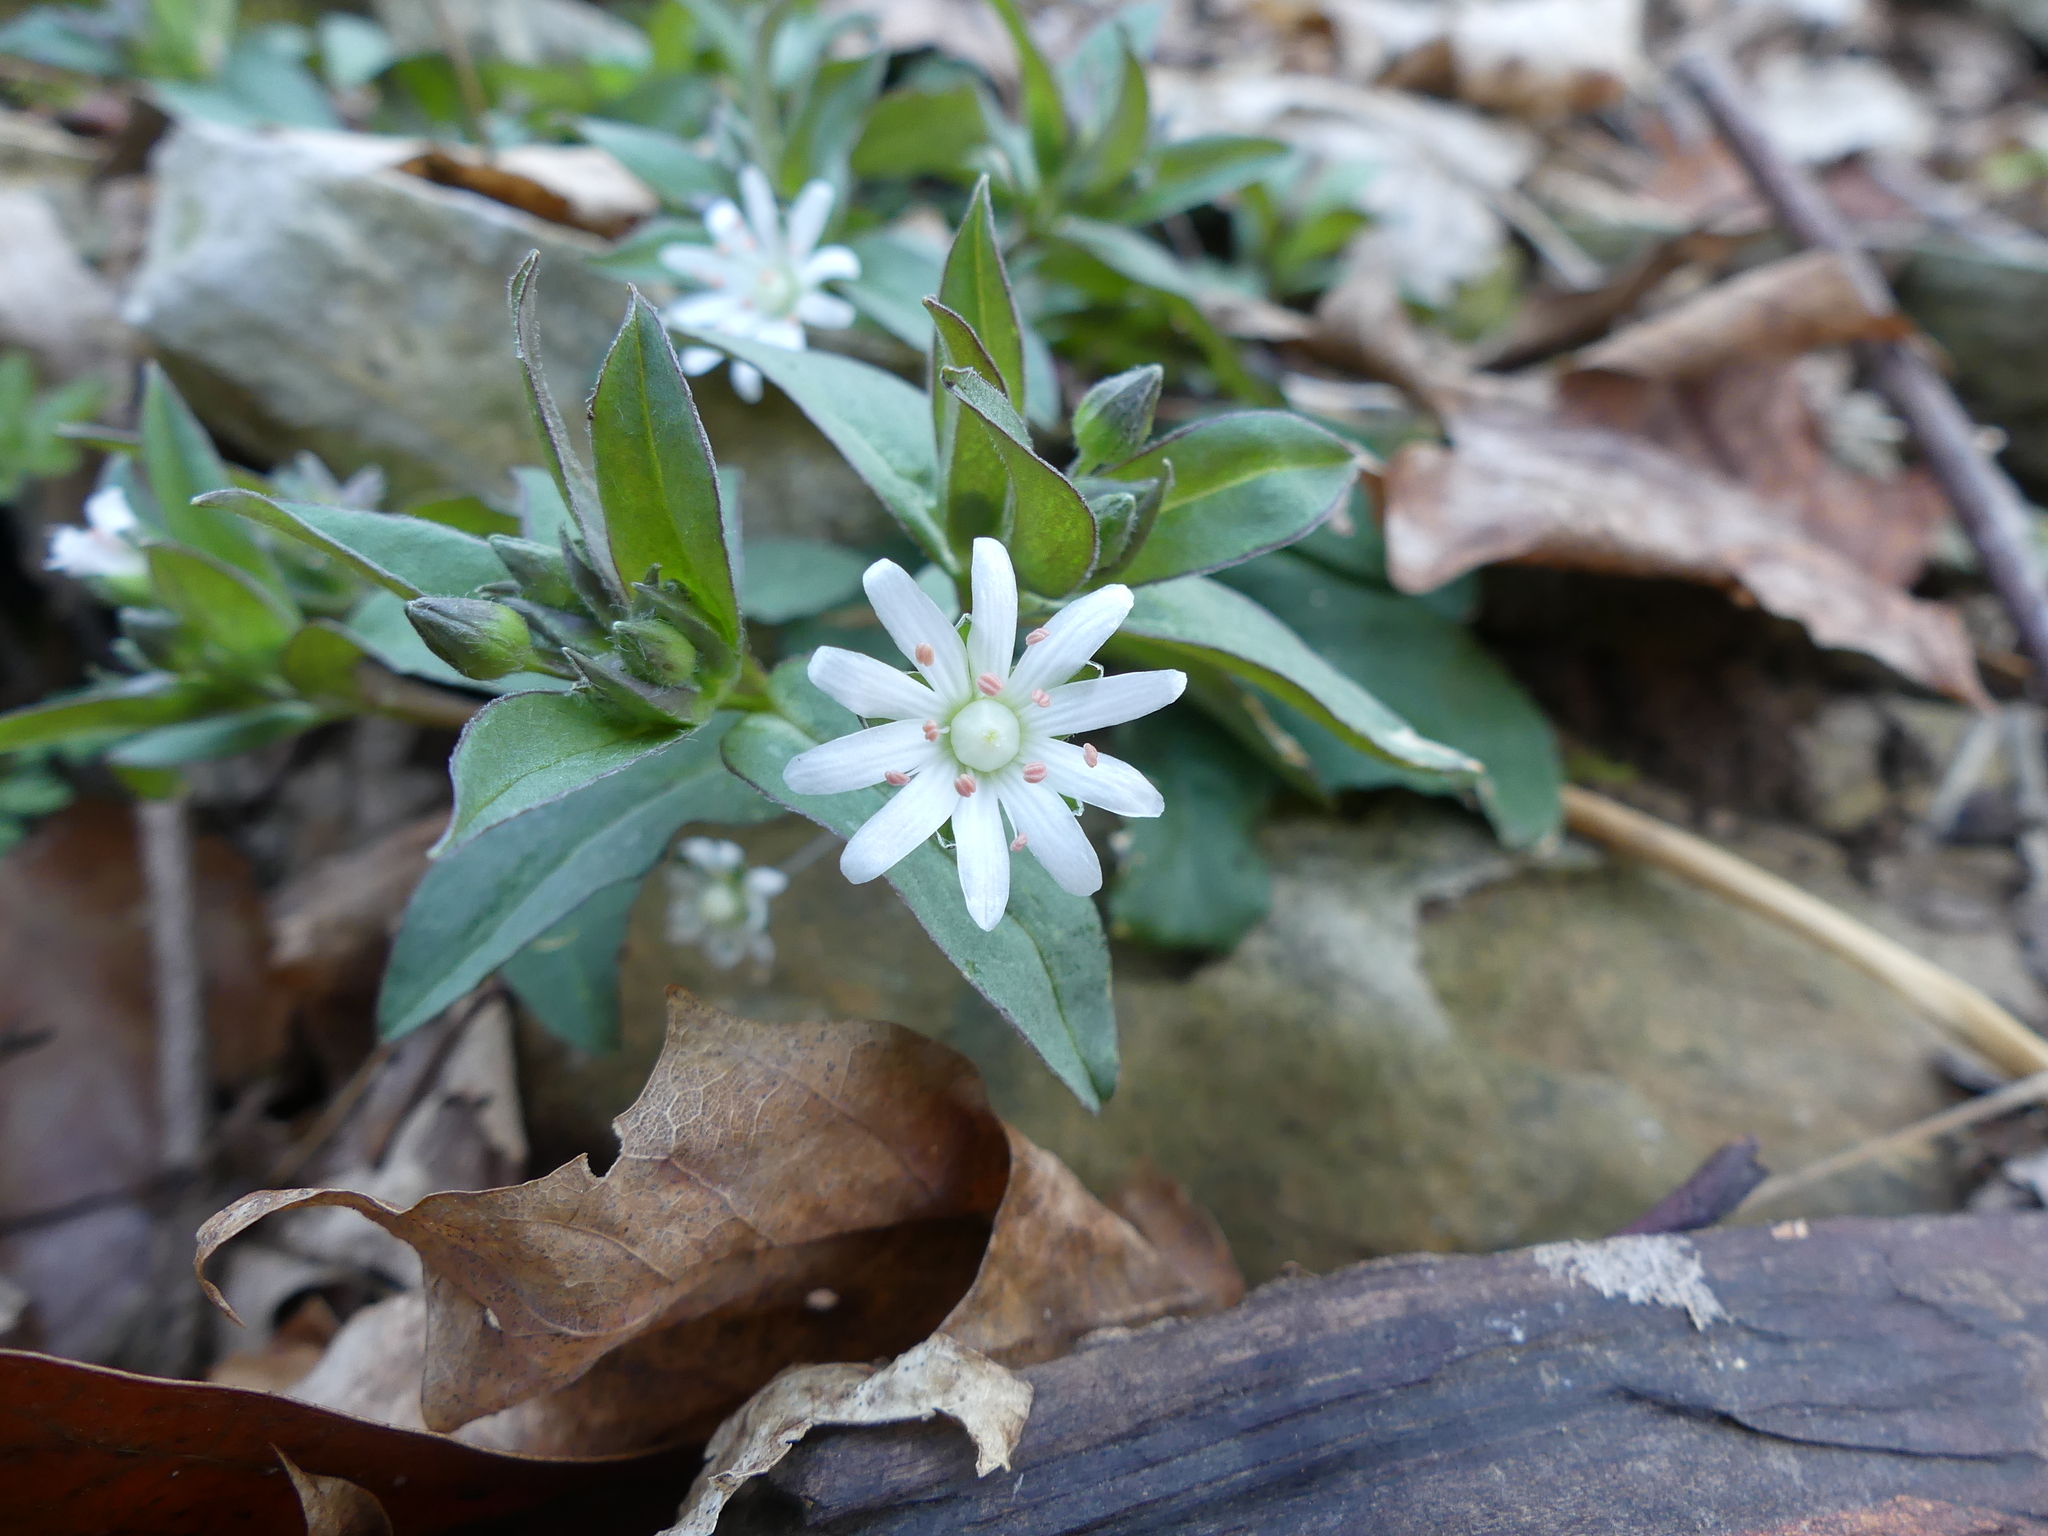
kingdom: Plantae
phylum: Tracheophyta
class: Magnoliopsida
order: Caryophyllales
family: Caryophyllaceae
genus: Stellaria
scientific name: Stellaria pubera
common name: Star chickweed
